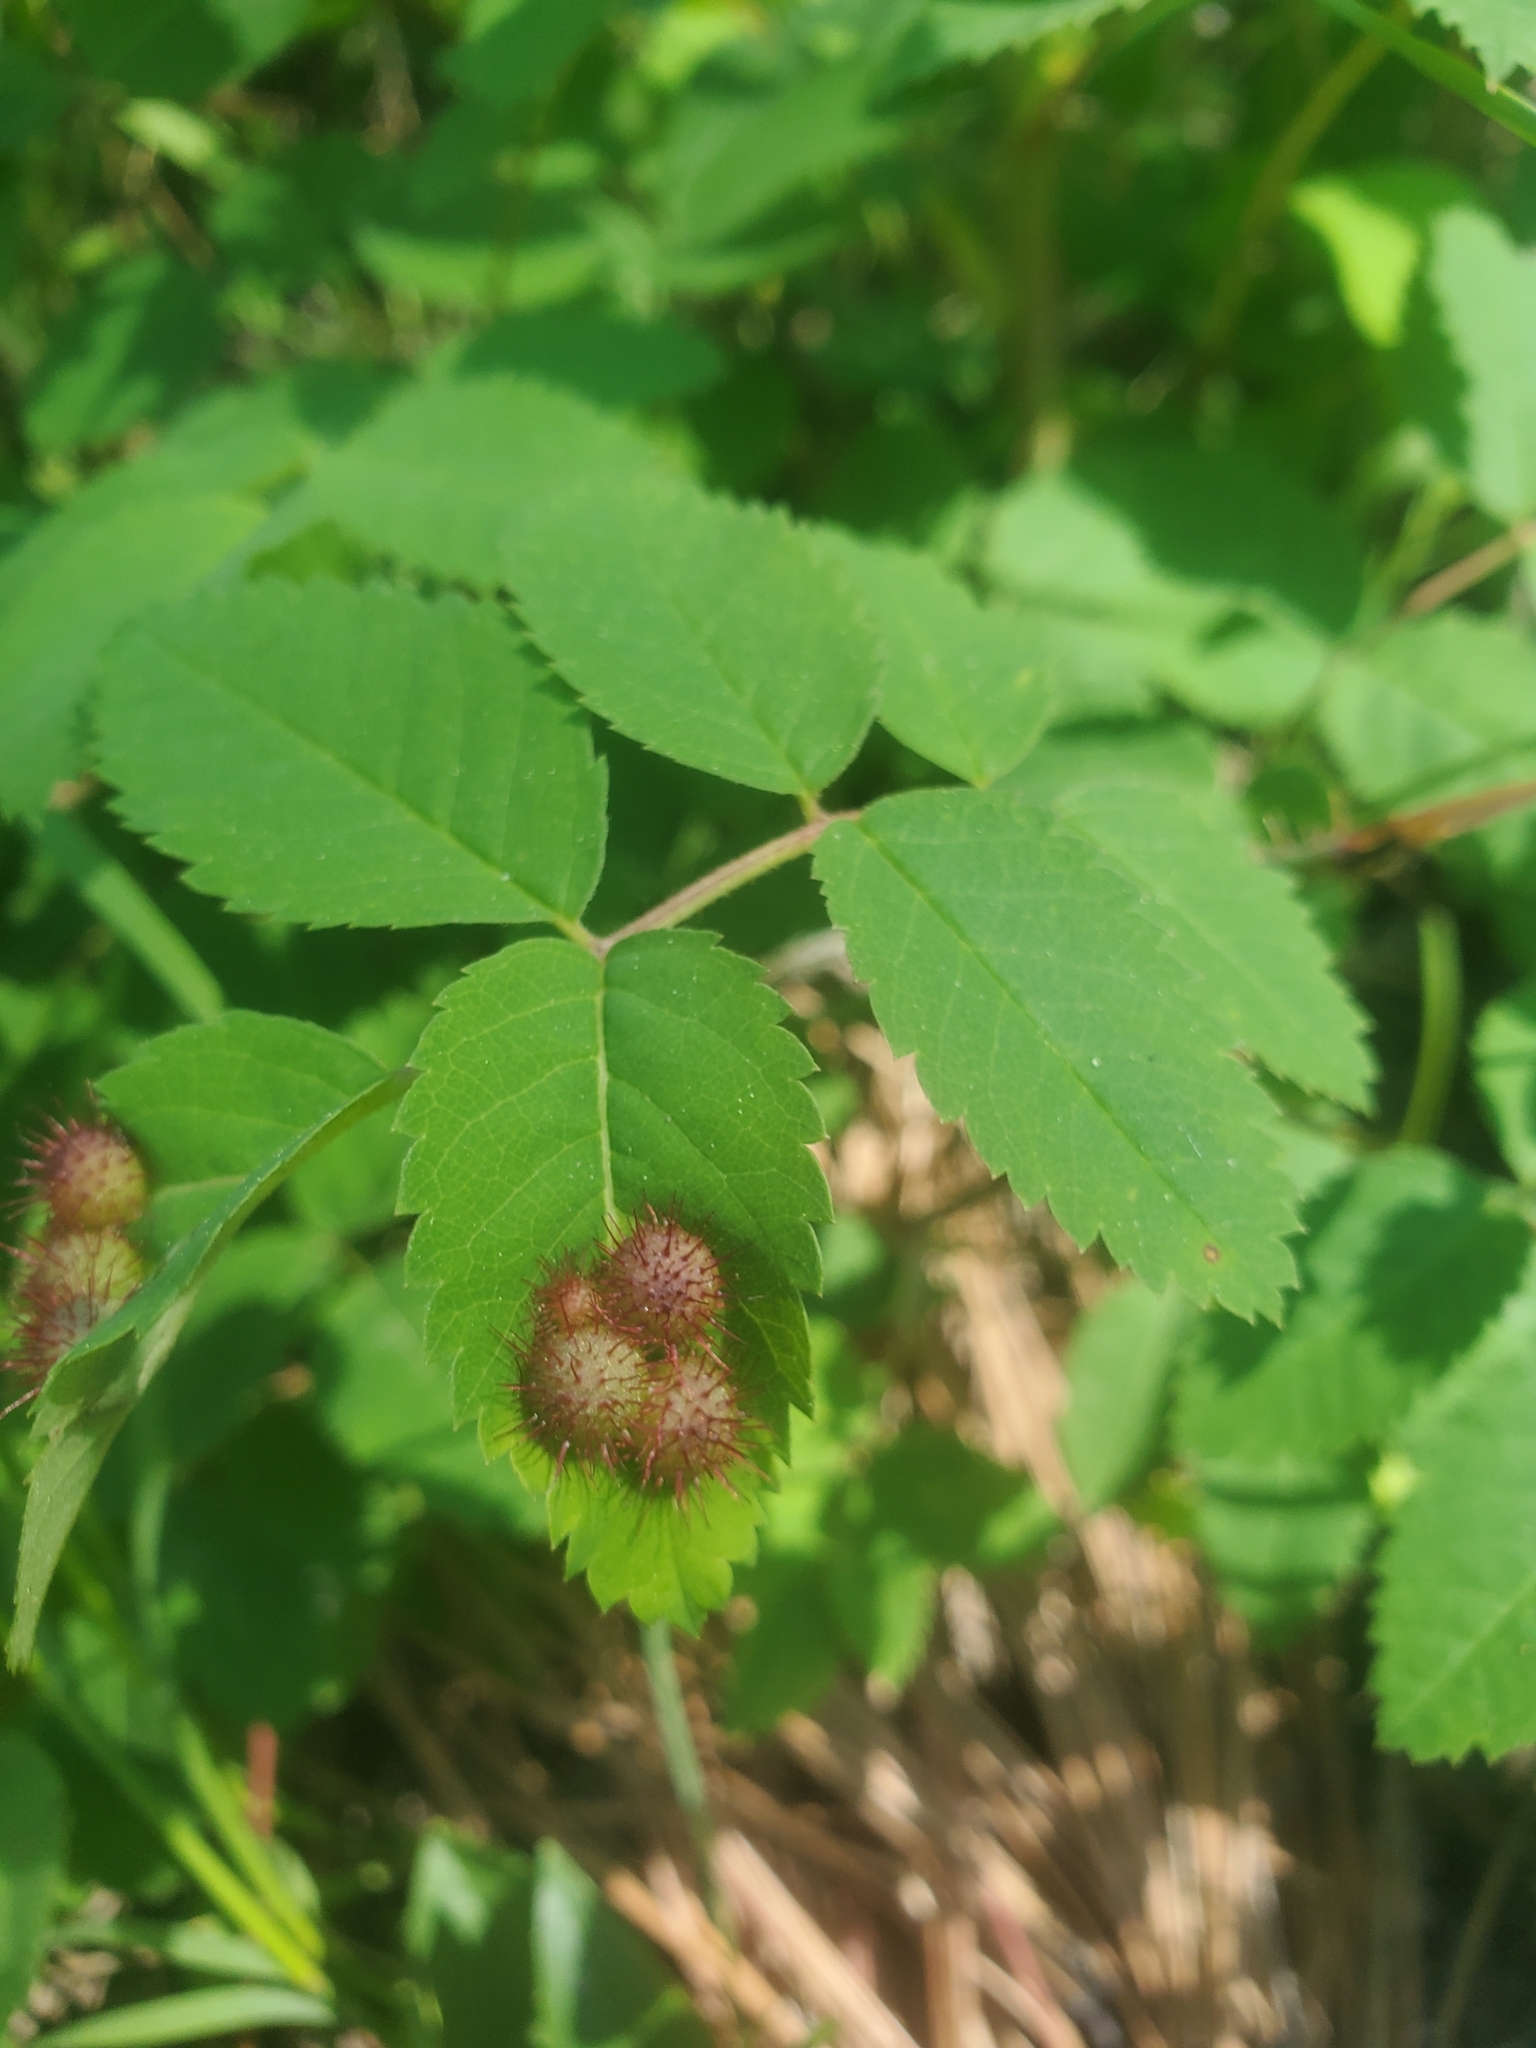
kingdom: Animalia
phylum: Arthropoda
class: Insecta
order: Hymenoptera
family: Cynipidae
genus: Diplolepis
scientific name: Diplolepis polita
